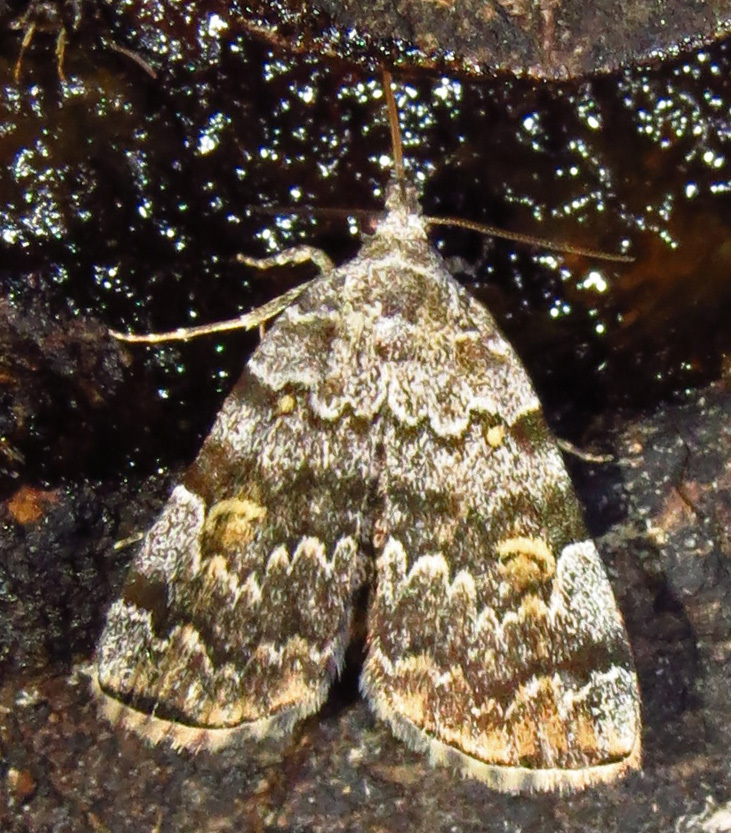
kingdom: Animalia
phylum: Arthropoda
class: Insecta
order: Lepidoptera
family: Erebidae
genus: Idia
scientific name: Idia americalis
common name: American idia moth
